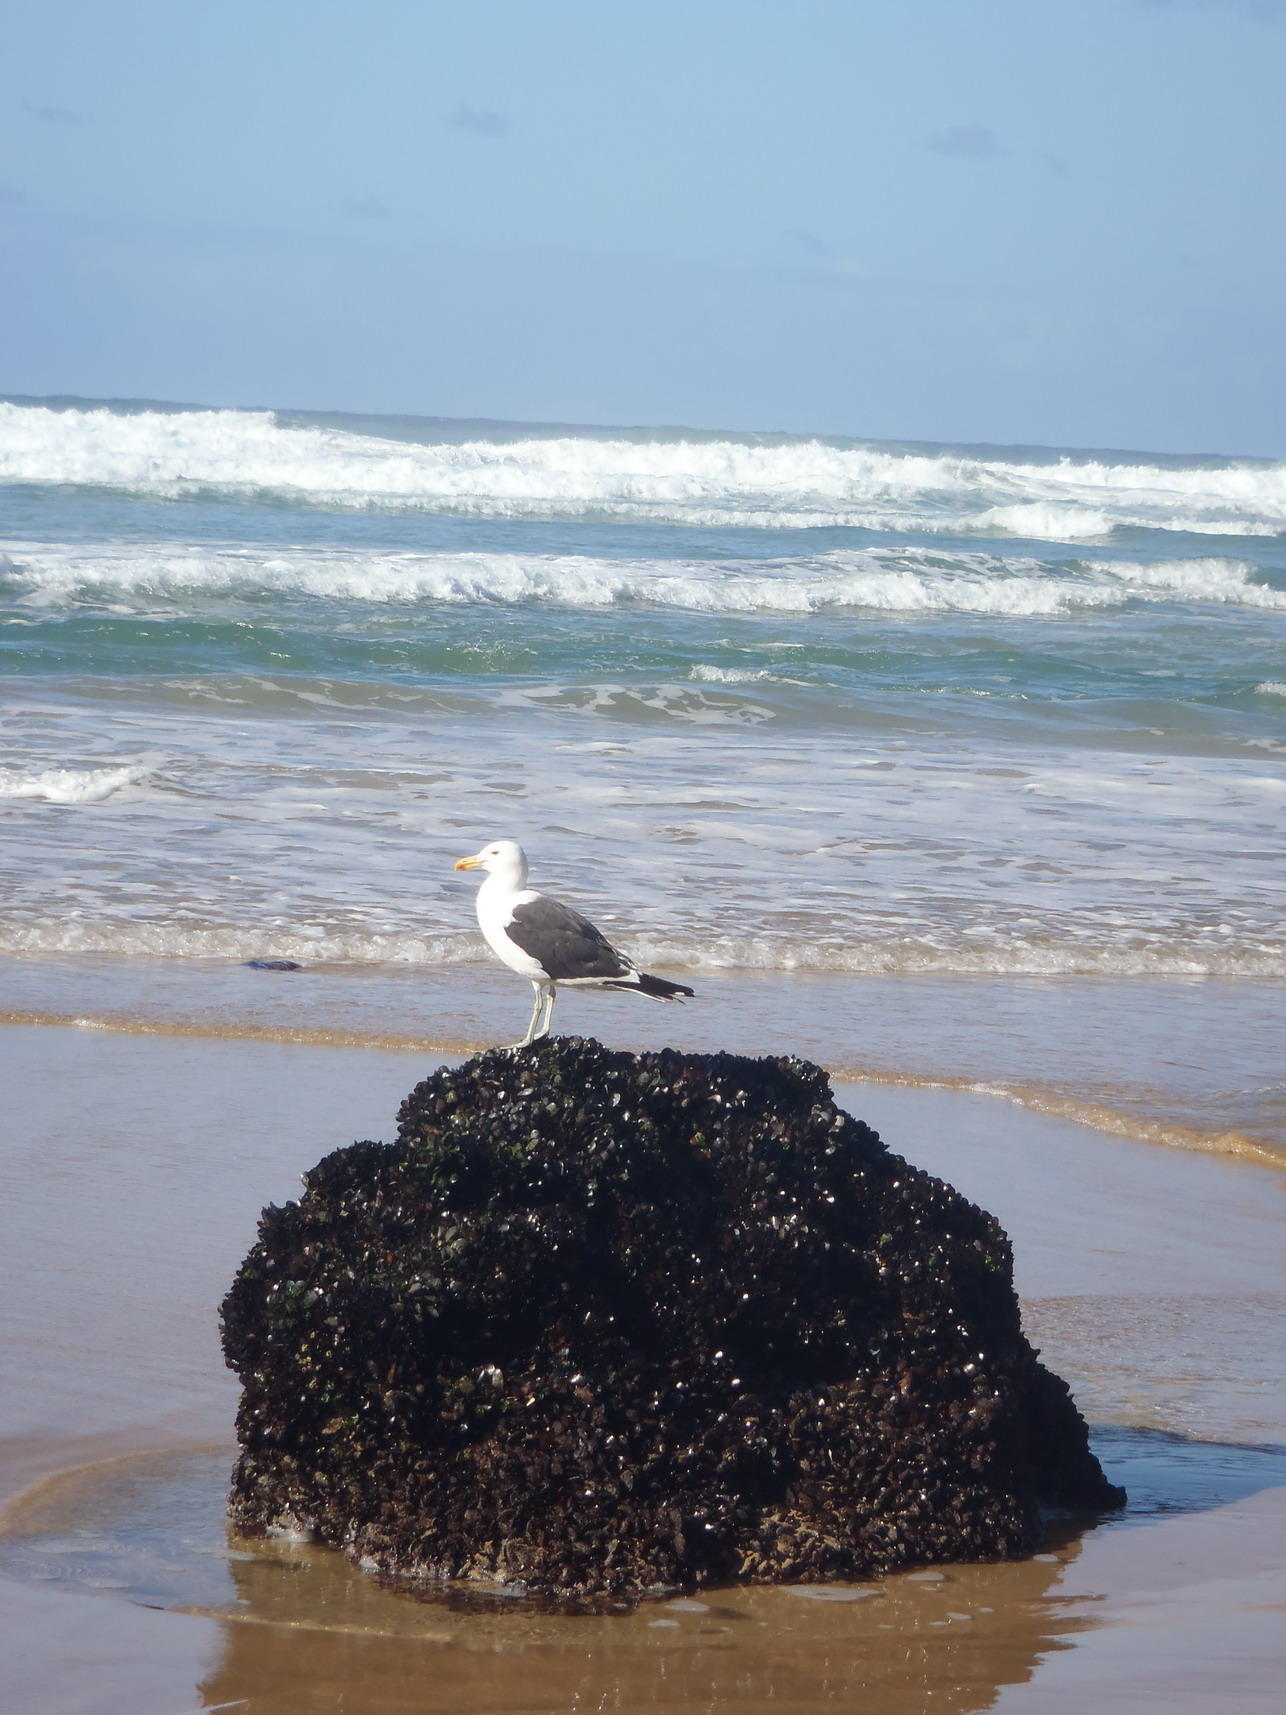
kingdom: Animalia
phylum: Chordata
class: Aves
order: Charadriiformes
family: Laridae
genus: Larus
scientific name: Larus dominicanus
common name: Kelp gull
